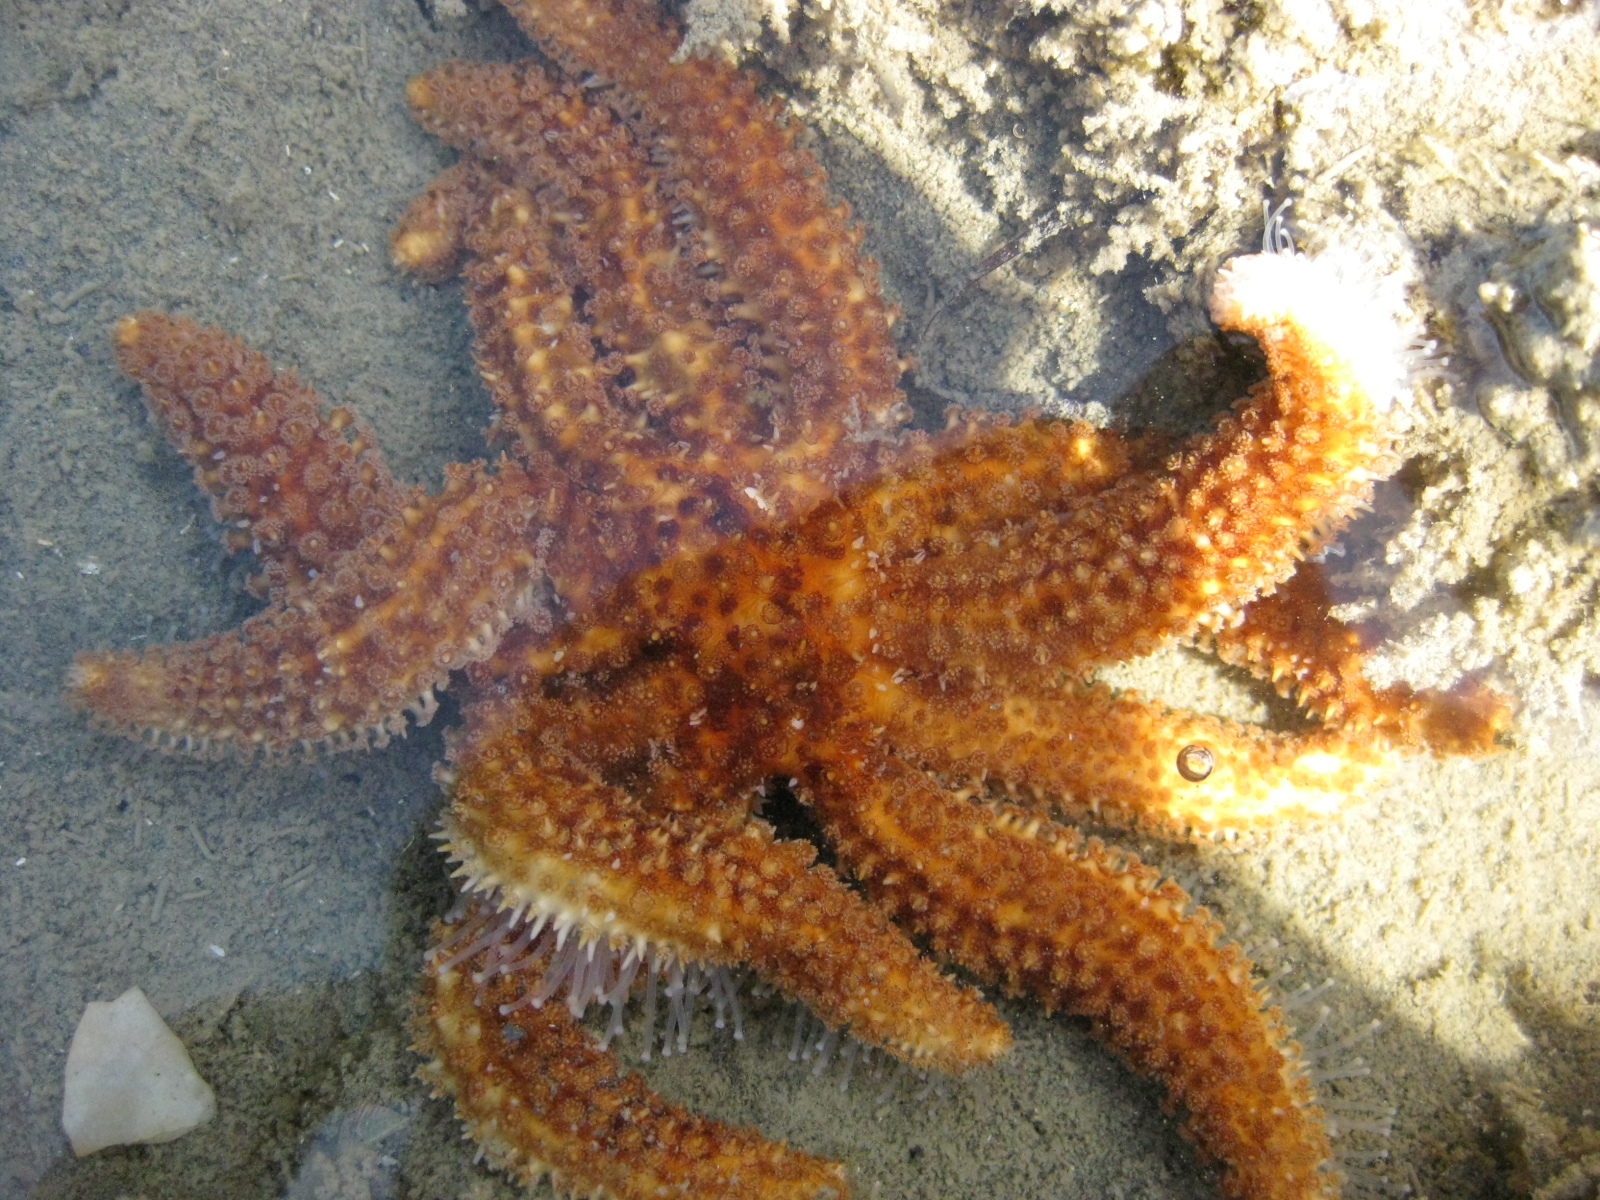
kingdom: Animalia
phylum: Echinodermata
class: Asteroidea
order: Forcipulatida
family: Asteriidae
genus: Coscinasterias
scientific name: Coscinasterias muricata
